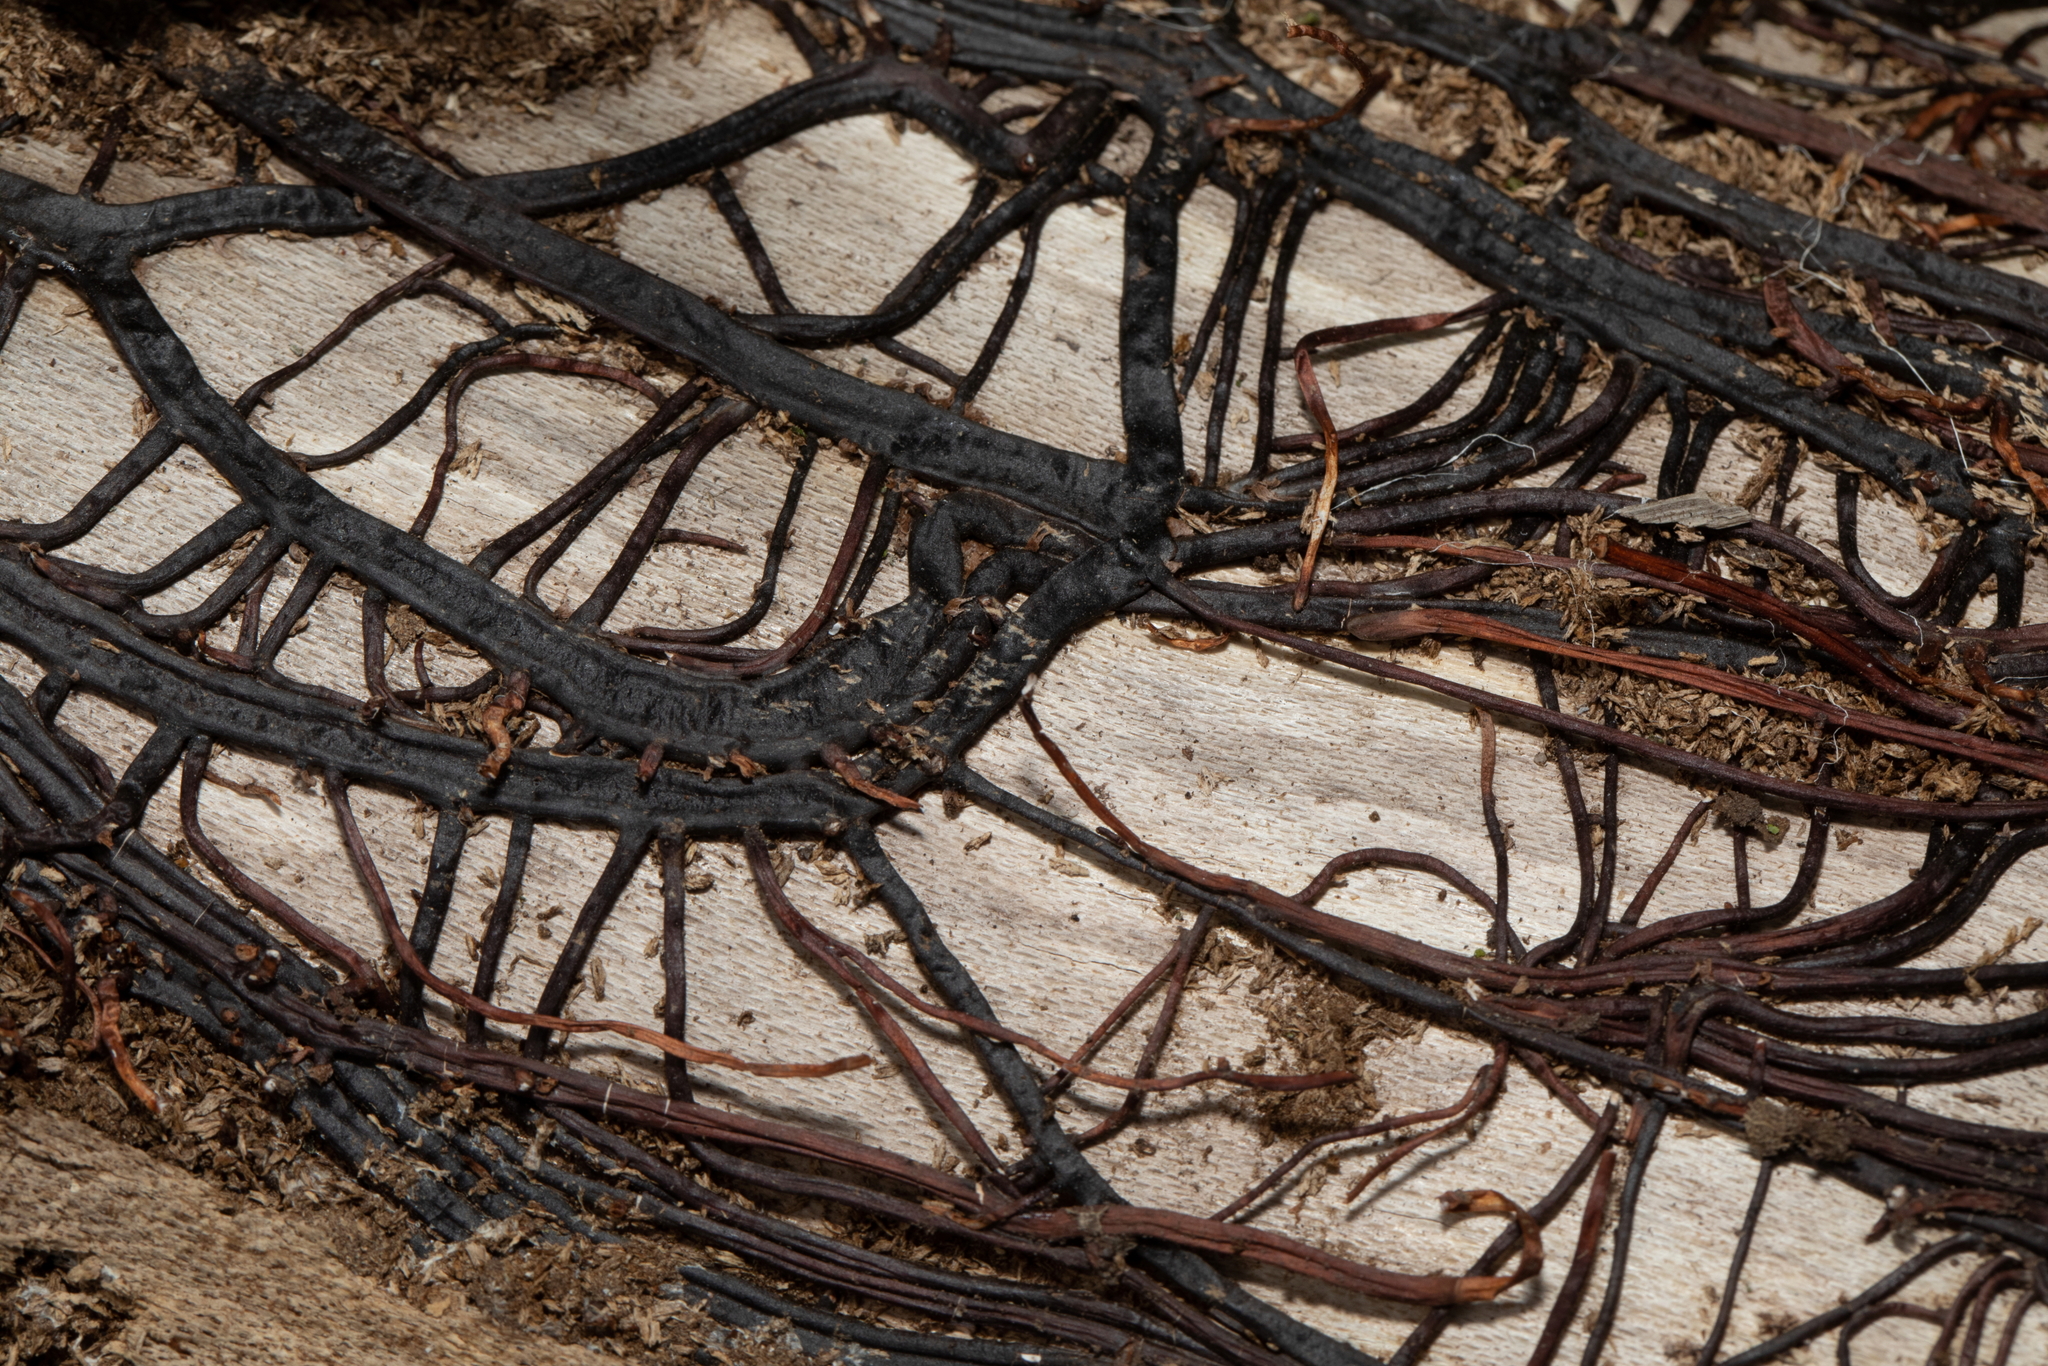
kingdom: Fungi
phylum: Basidiomycota
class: Agaricomycetes
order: Agaricales
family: Physalacriaceae
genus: Armillaria
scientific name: Armillaria mellea
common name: Honey fungus
